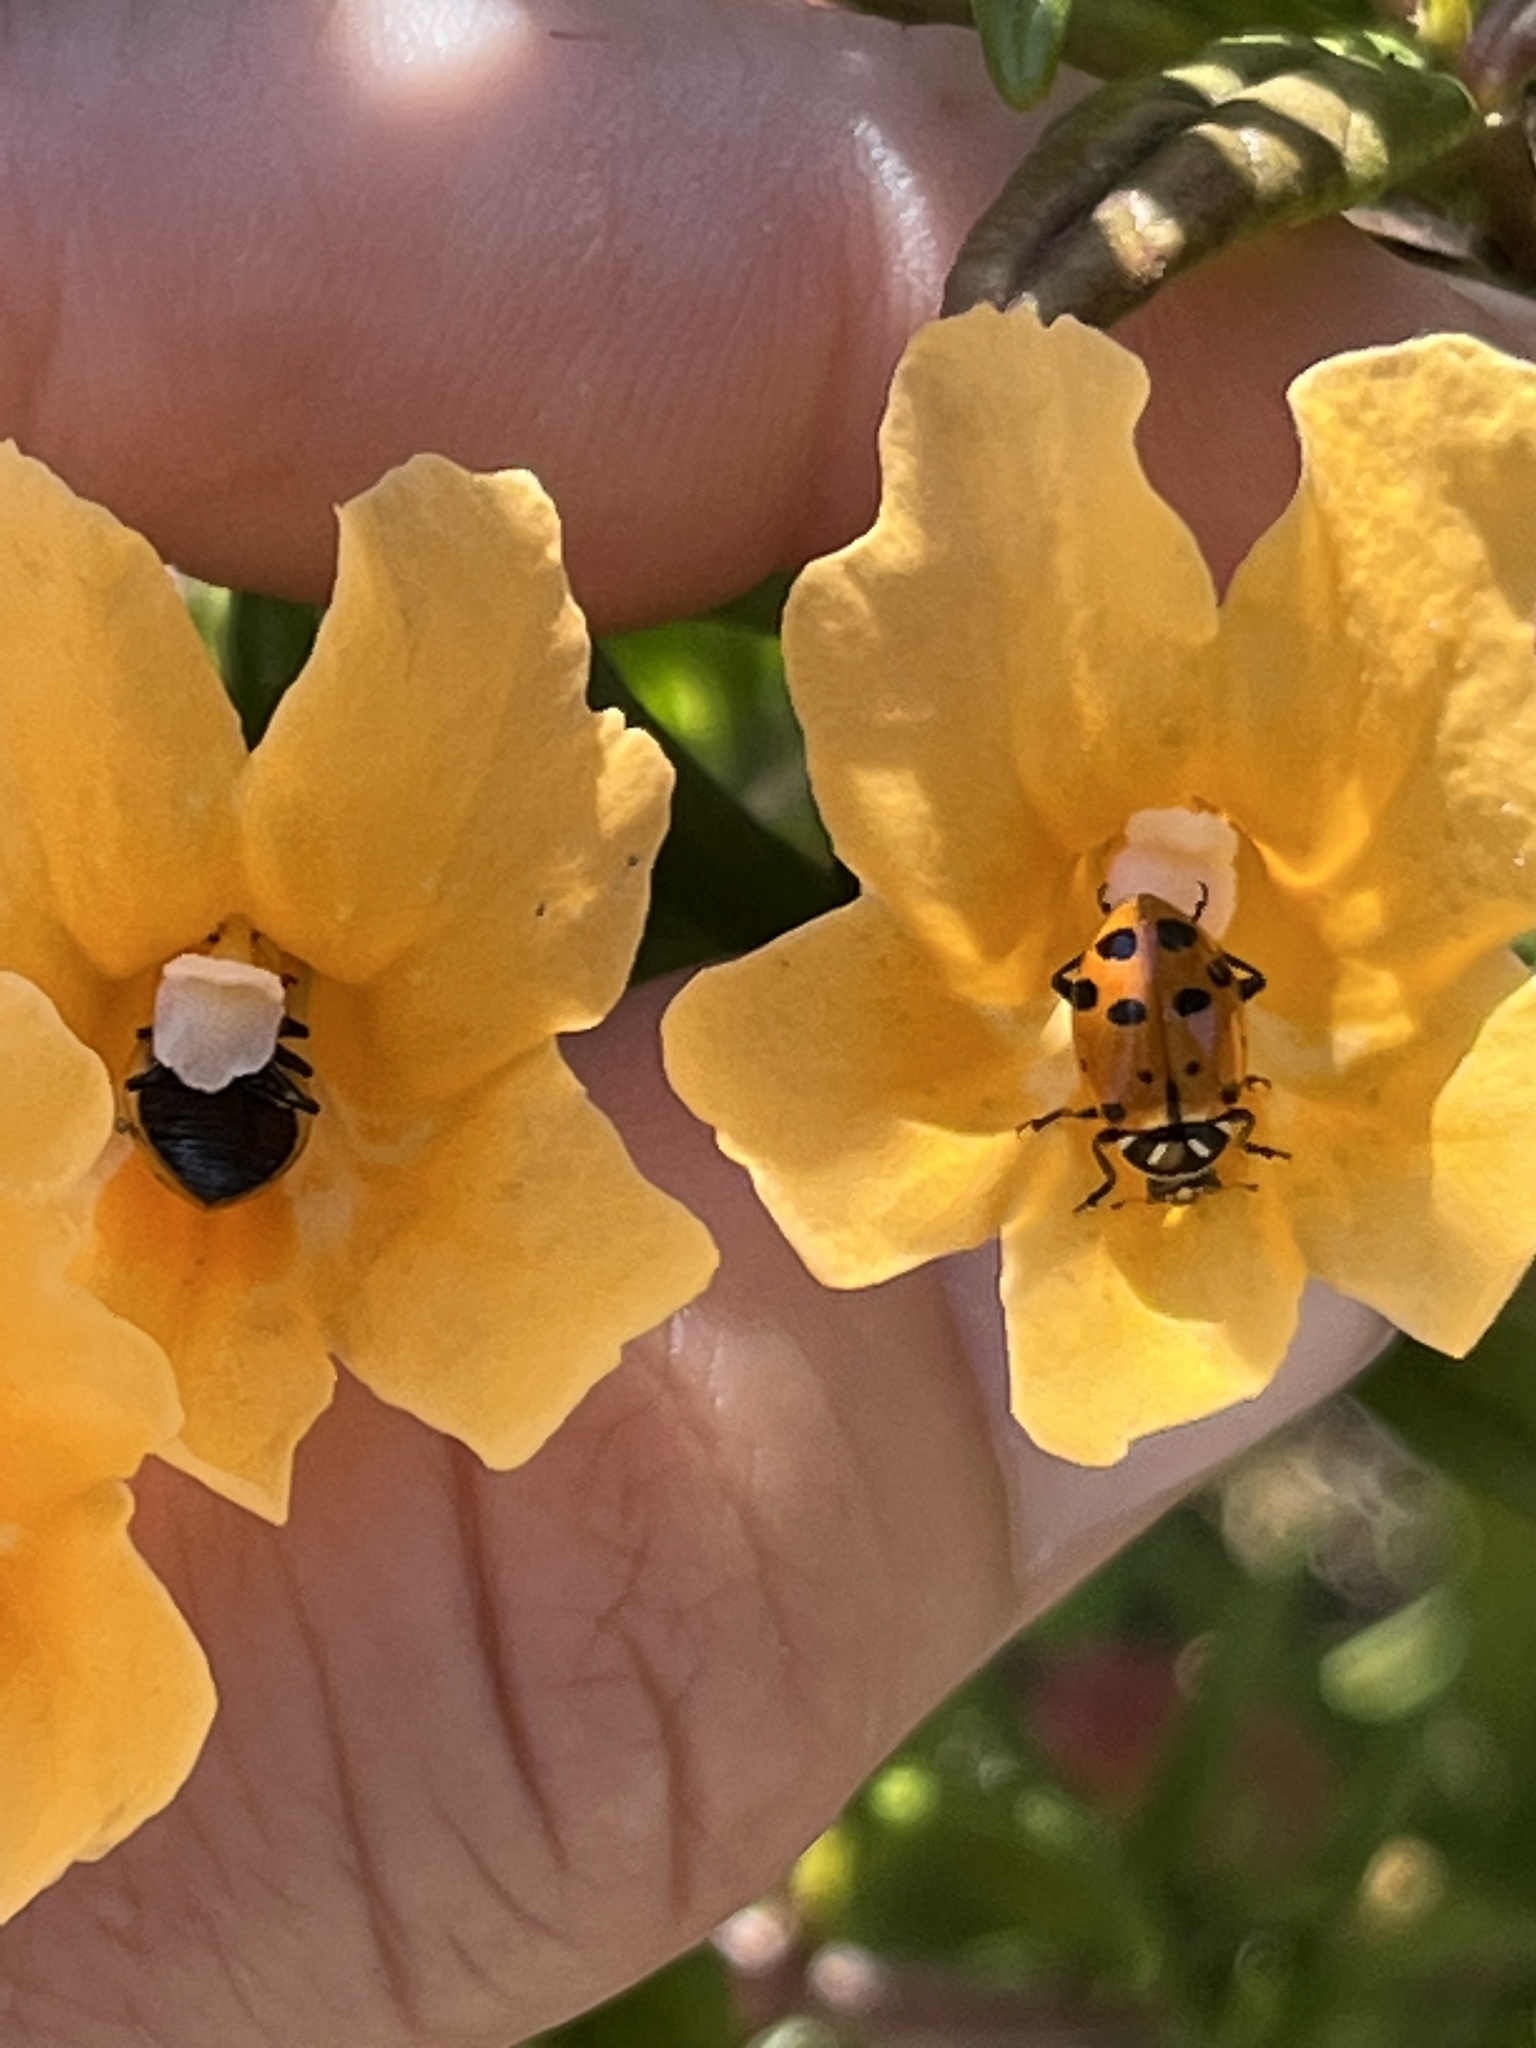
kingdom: Animalia
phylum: Arthropoda
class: Insecta
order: Coleoptera
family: Coccinellidae
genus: Hippodamia
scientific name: Hippodamia convergens
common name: Convergent lady beetle
